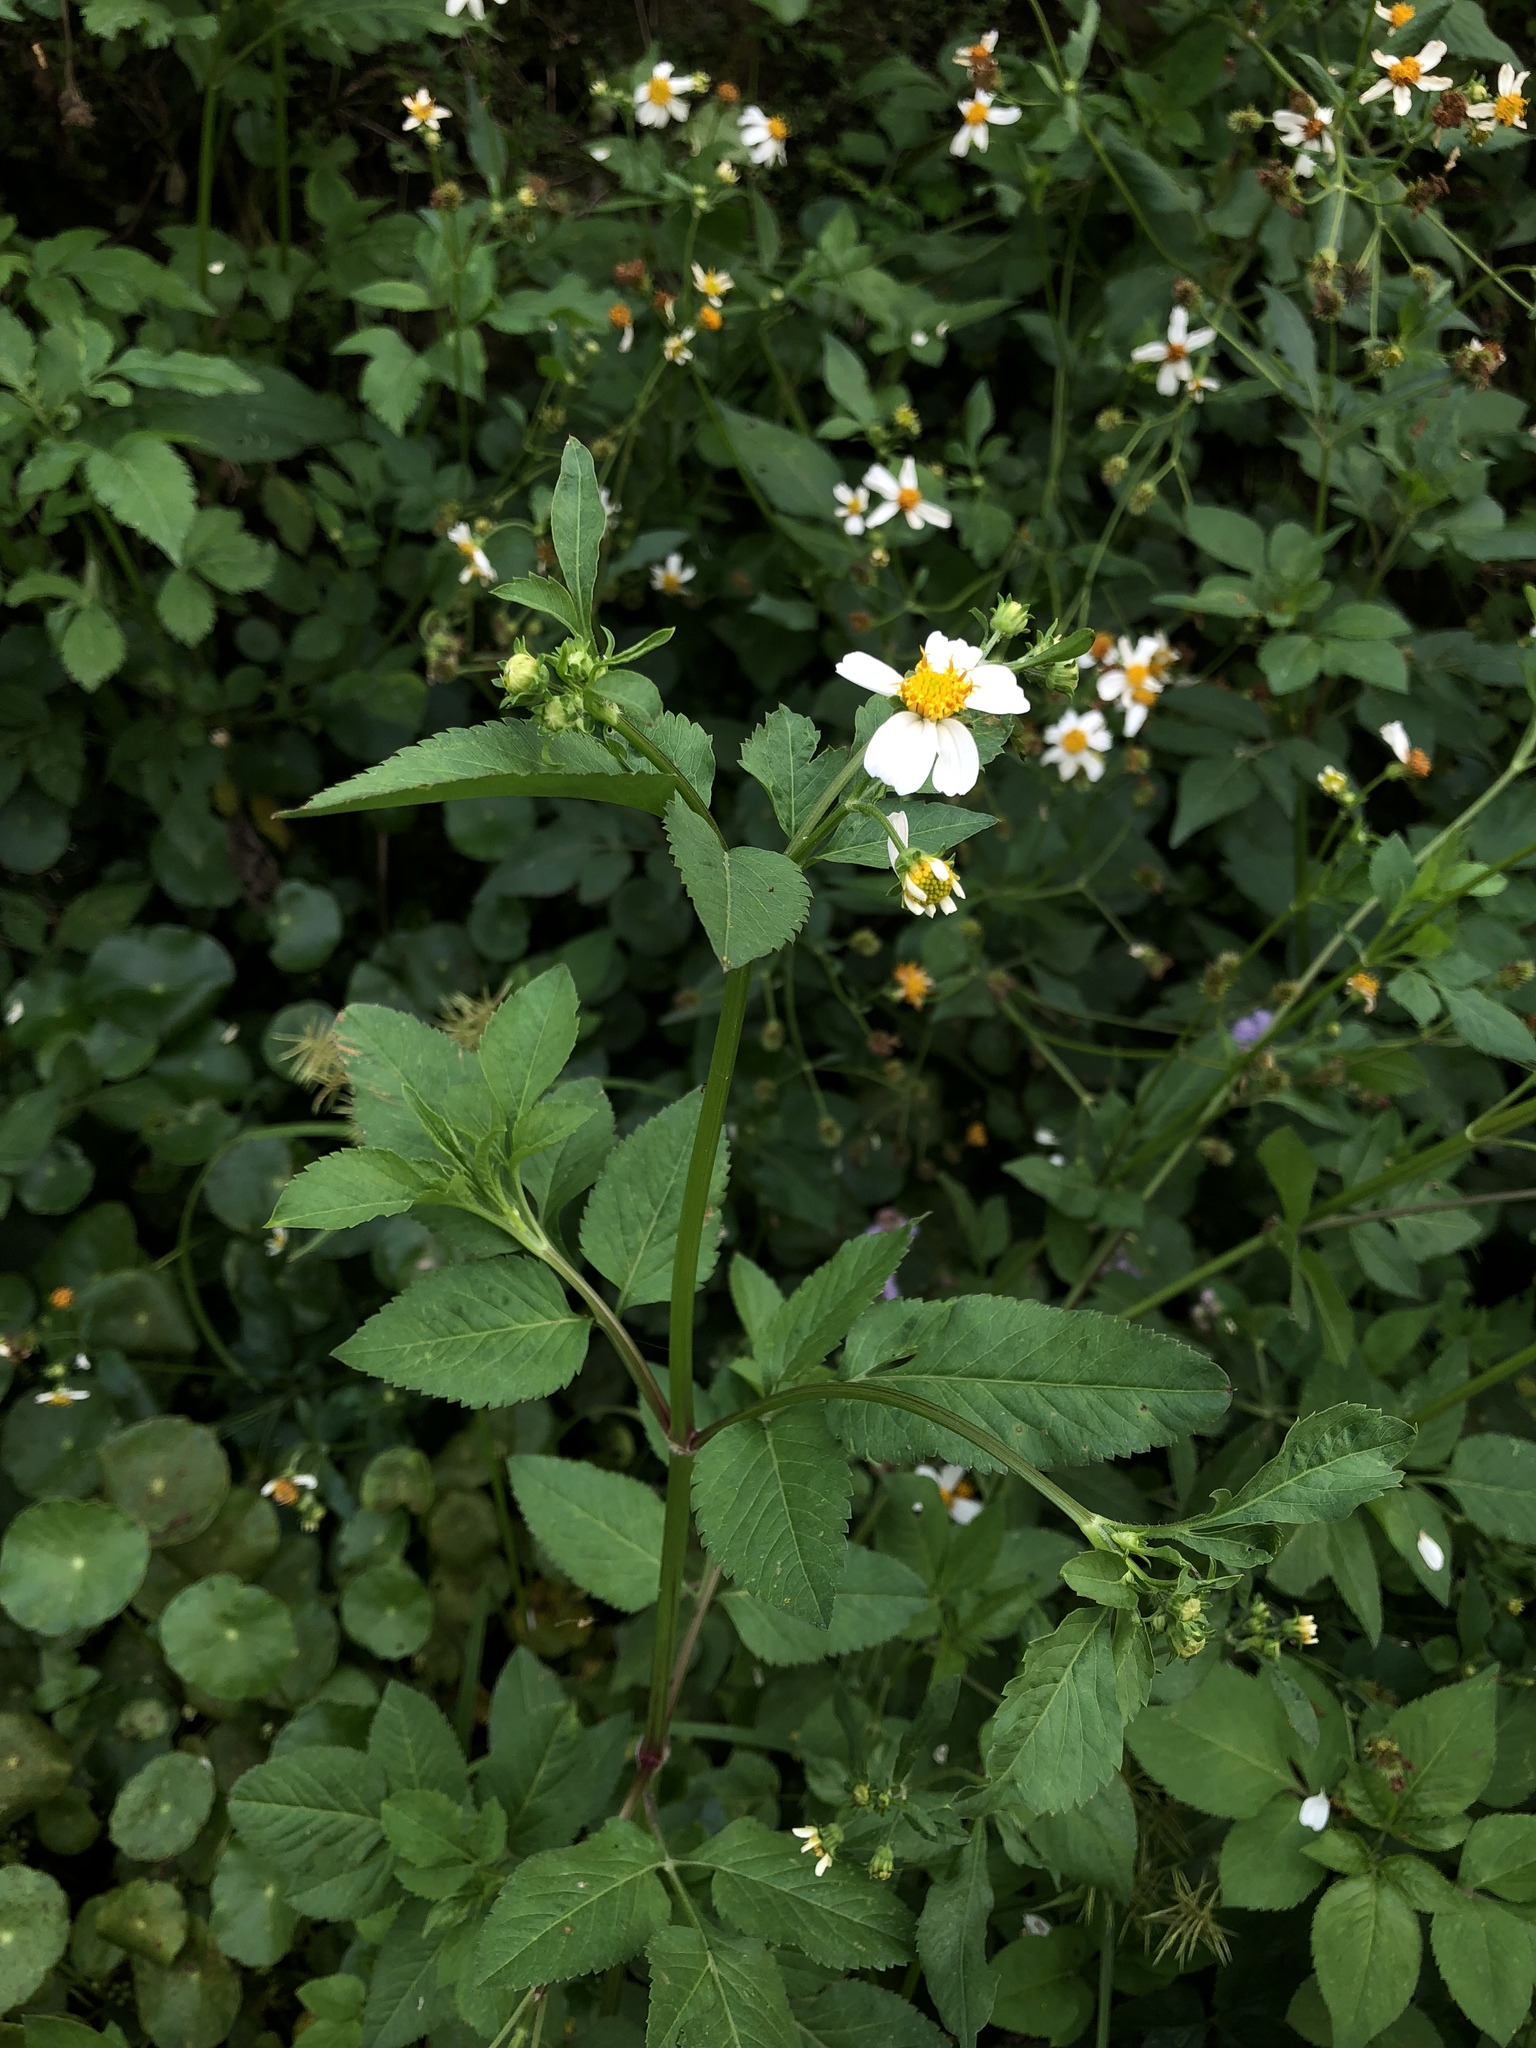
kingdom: Plantae
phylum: Tracheophyta
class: Magnoliopsida
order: Asterales
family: Asteraceae
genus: Bidens
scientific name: Bidens alba
